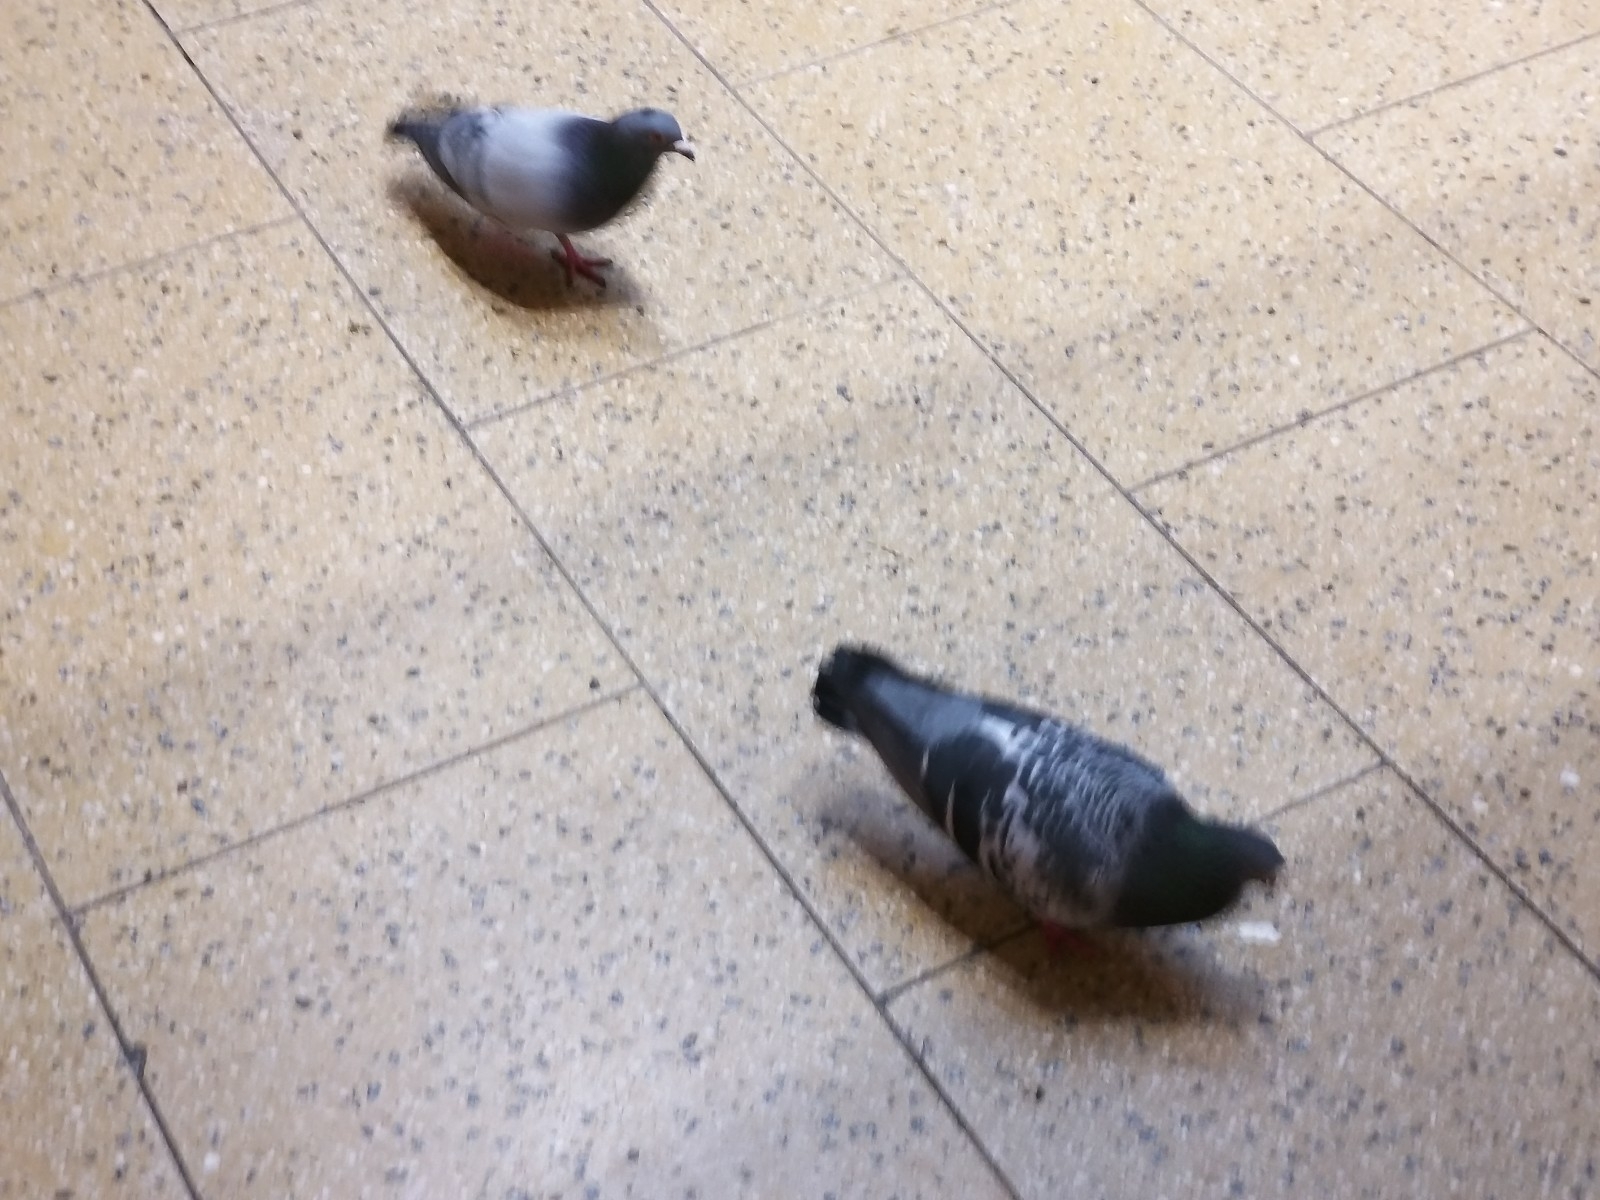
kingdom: Animalia
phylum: Chordata
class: Aves
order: Columbiformes
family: Columbidae
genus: Columba
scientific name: Columba livia
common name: Rock pigeon
